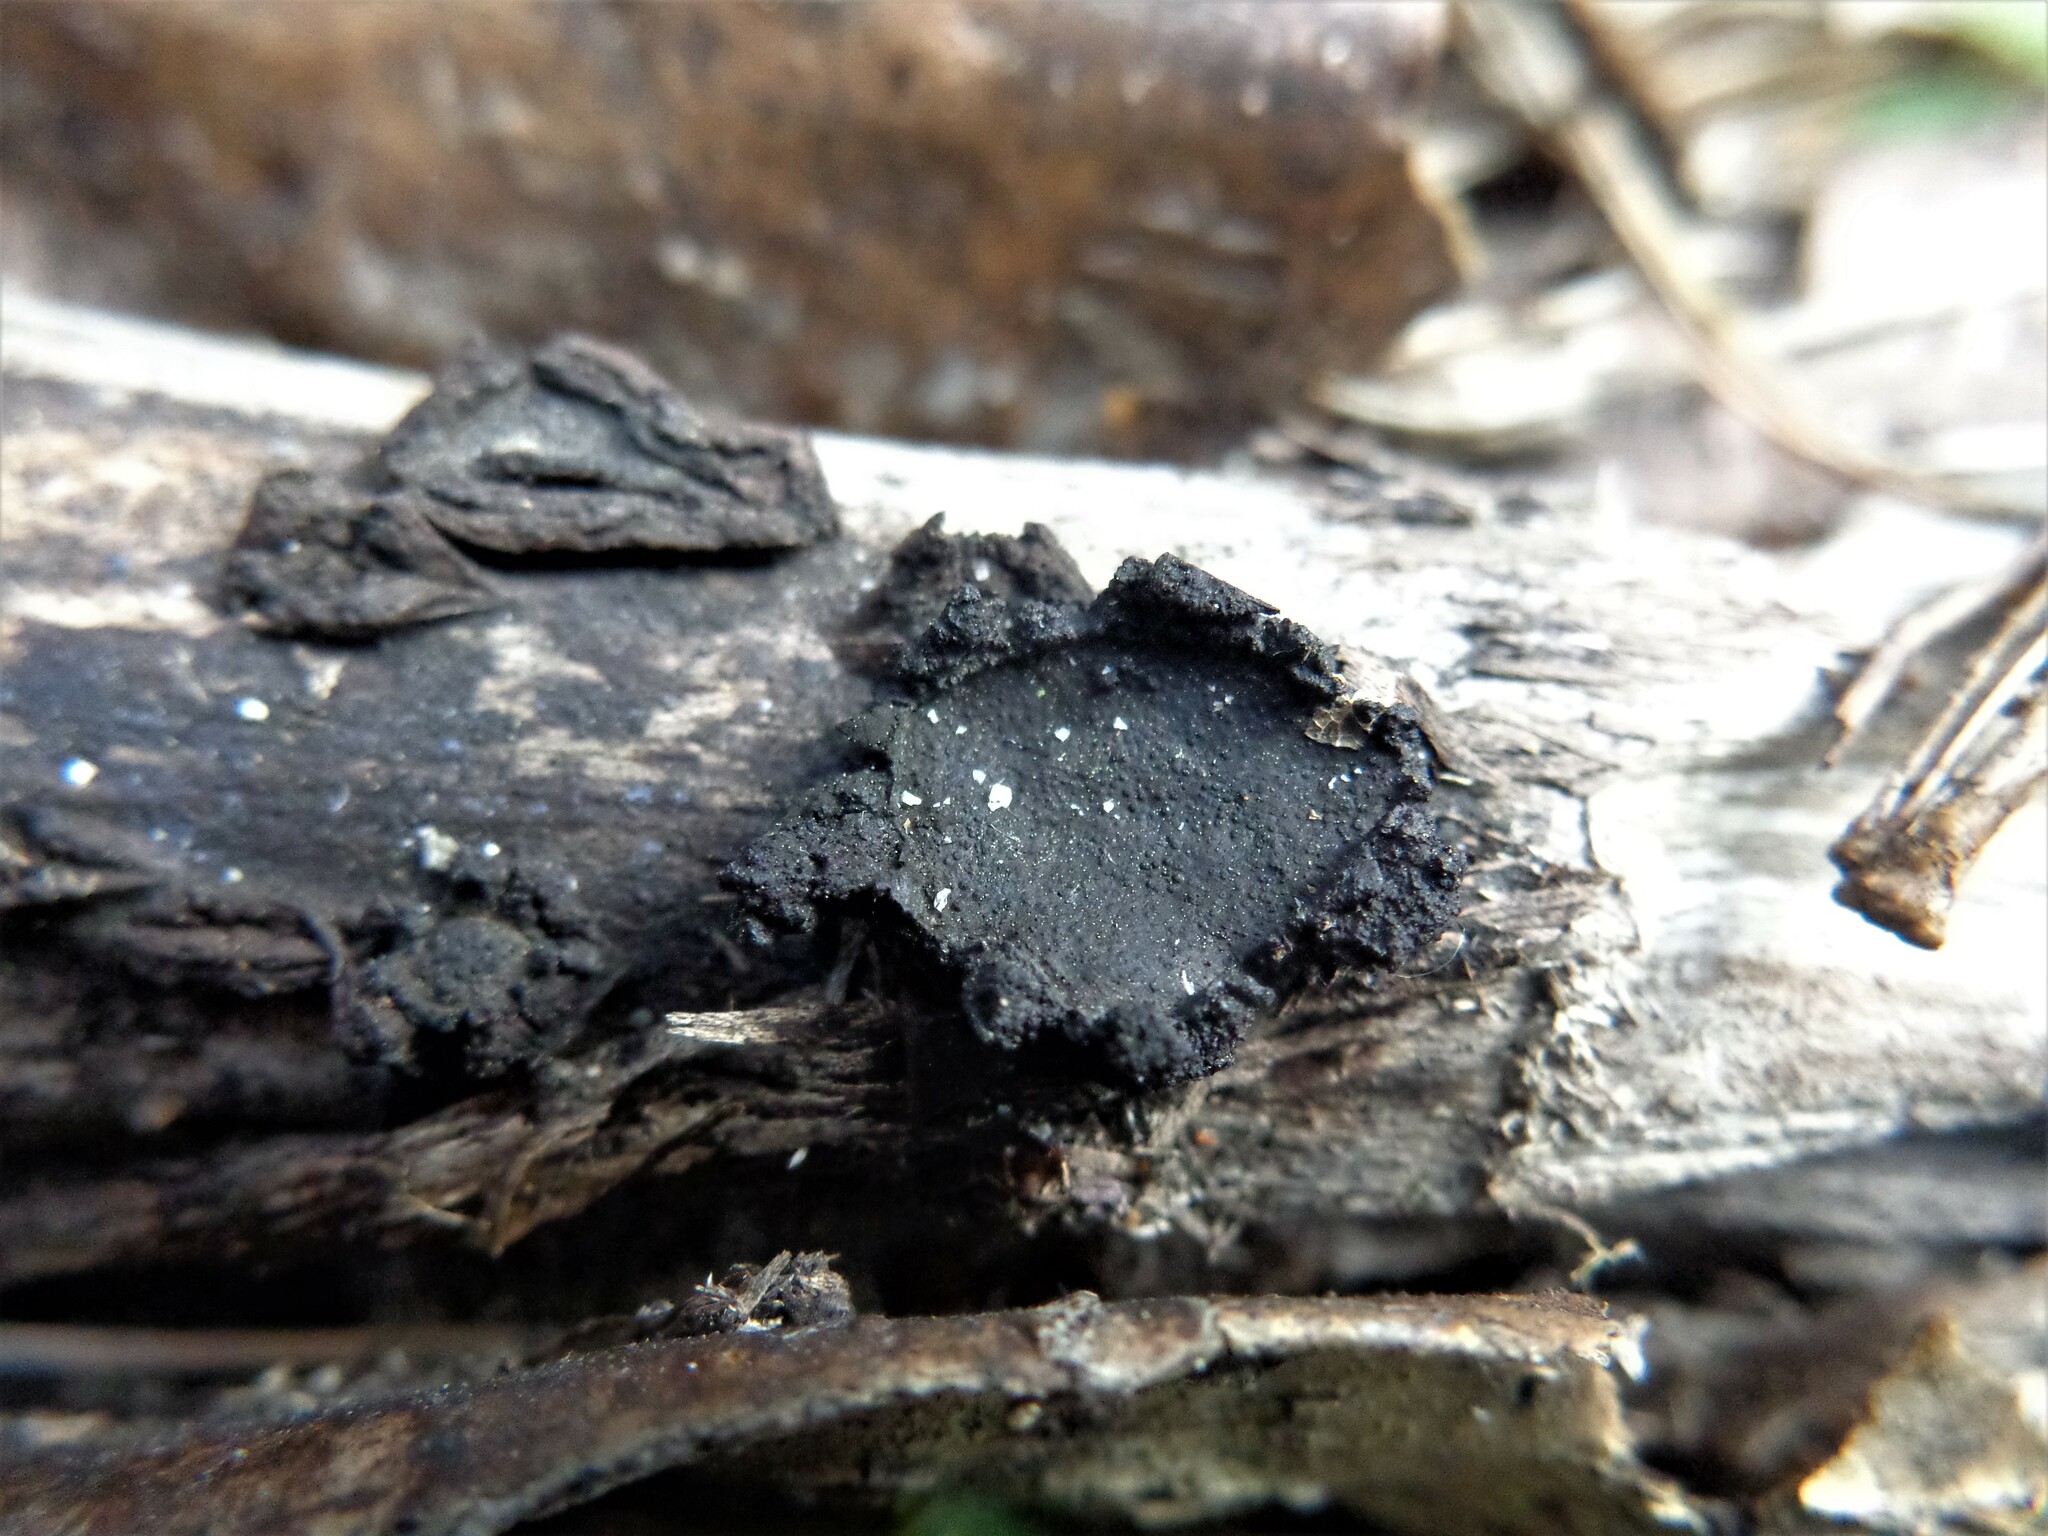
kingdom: Fungi
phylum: Ascomycota
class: Sordariomycetes
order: Xylariales
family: Graphostromataceae
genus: Biscogniauxia
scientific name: Biscogniauxia repanda
